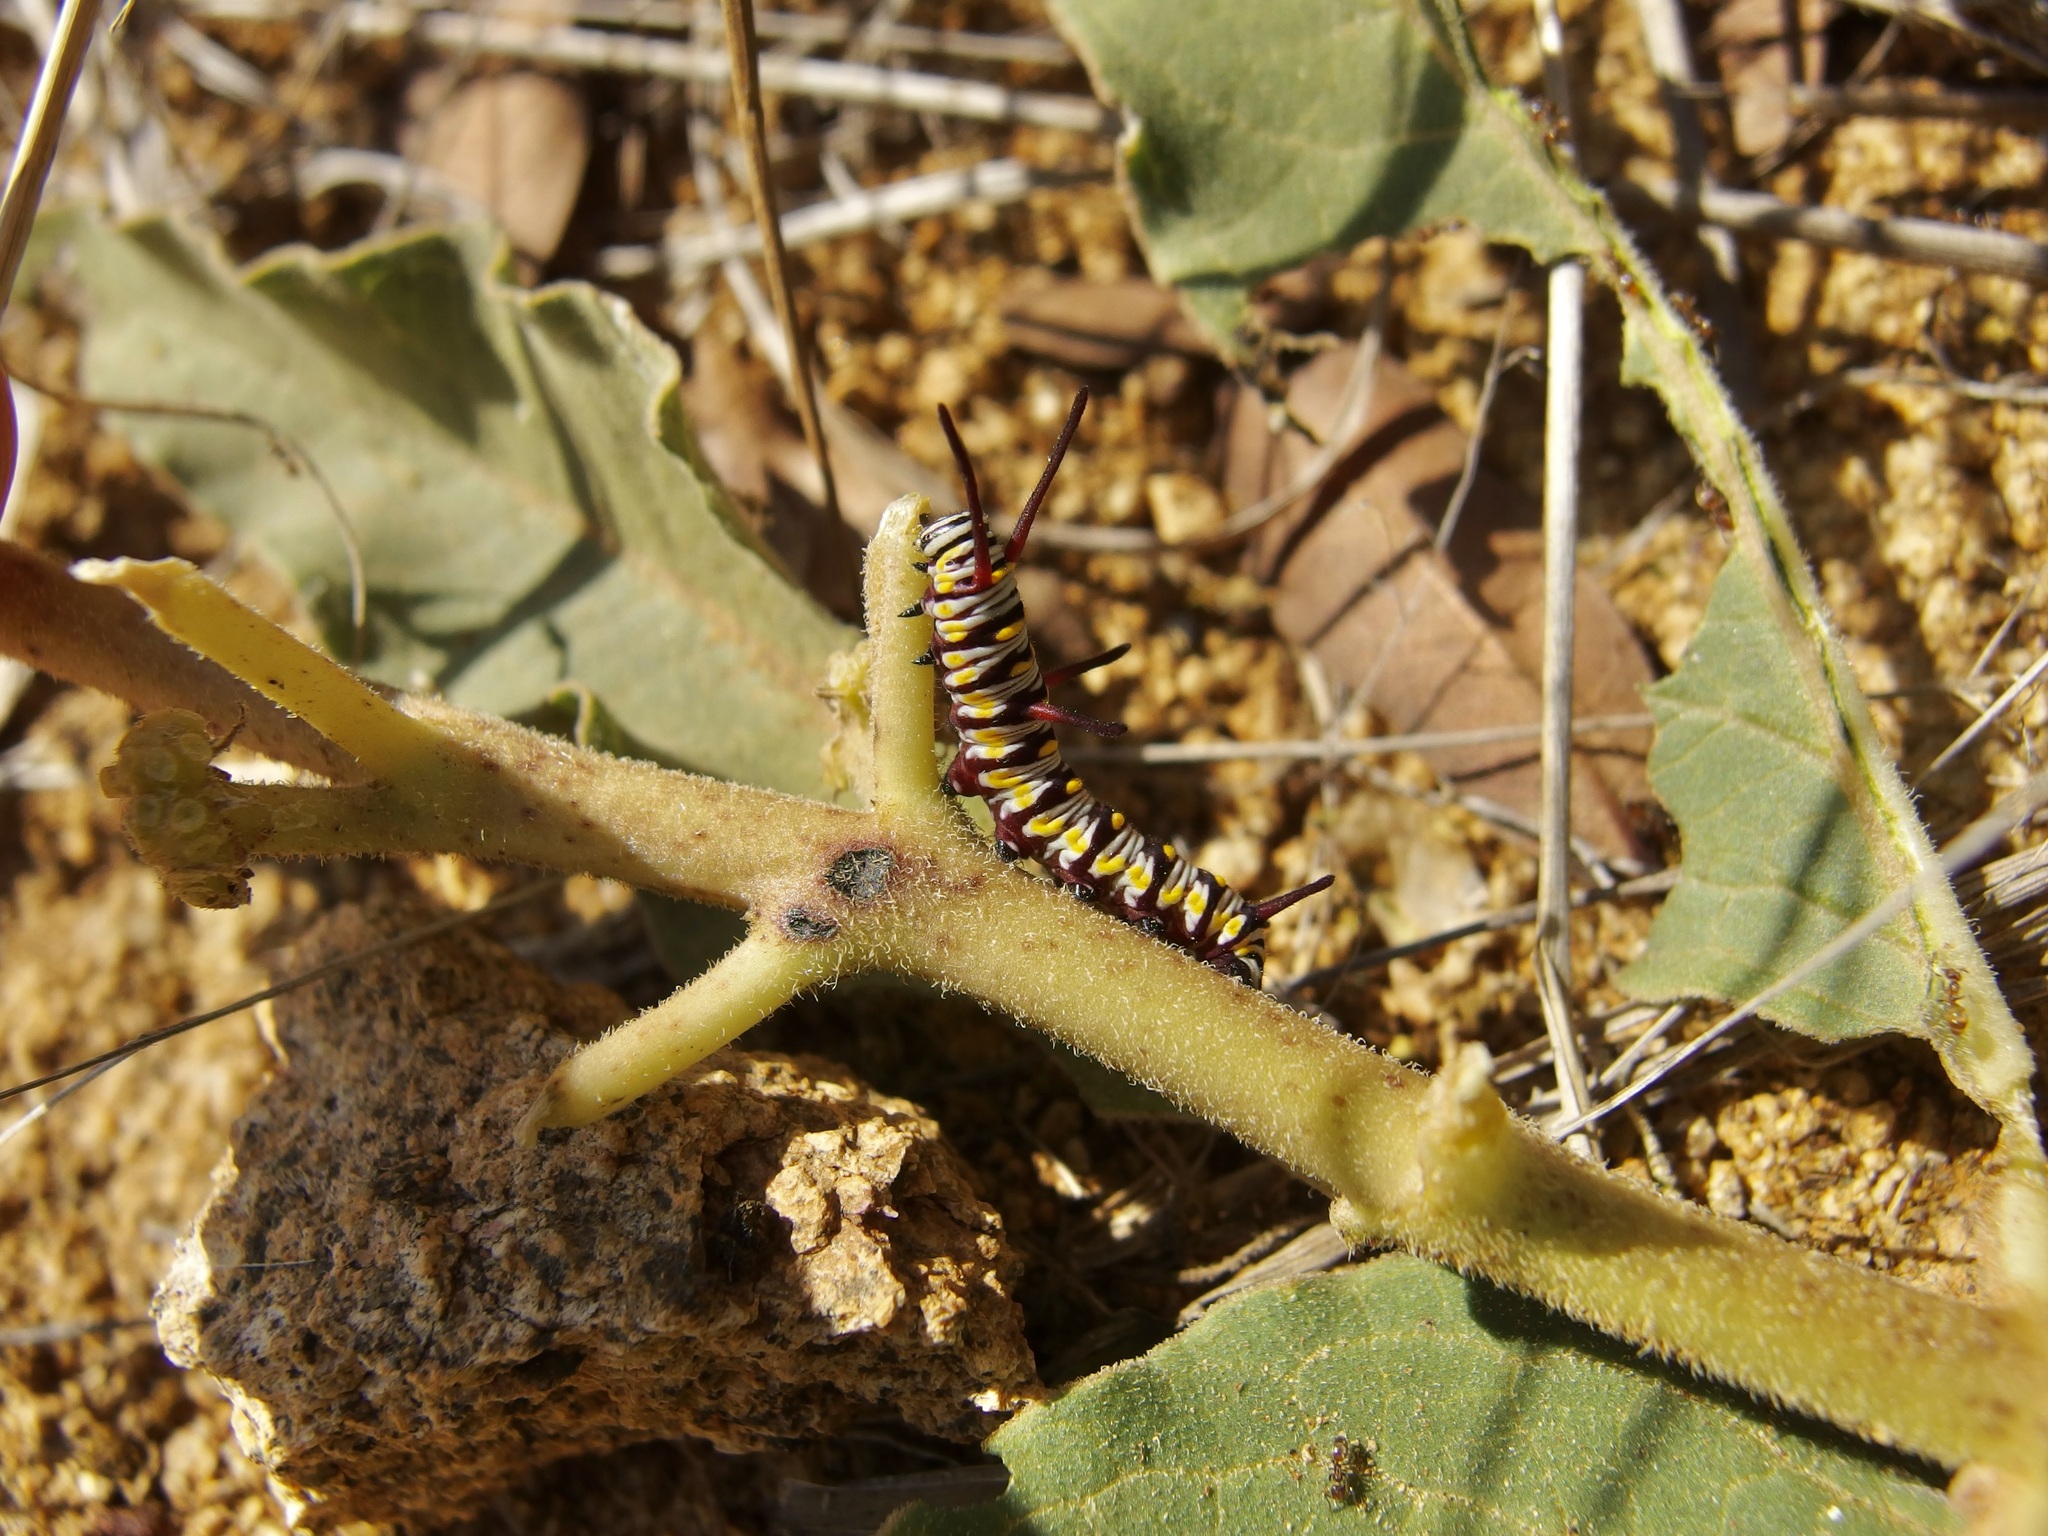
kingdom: Animalia
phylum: Arthropoda
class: Insecta
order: Lepidoptera
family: Nymphalidae
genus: Danaus
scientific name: Danaus gilippus
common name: Queen
